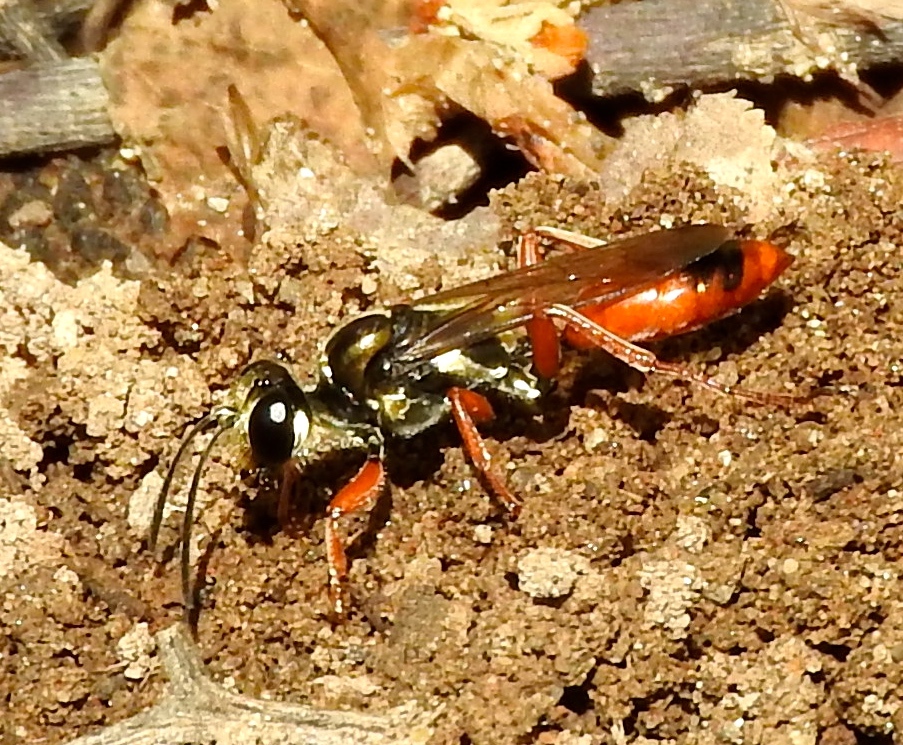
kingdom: Animalia
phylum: Arthropoda
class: Insecta
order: Hymenoptera
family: Sphecidae
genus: Sphex
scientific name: Sphex
